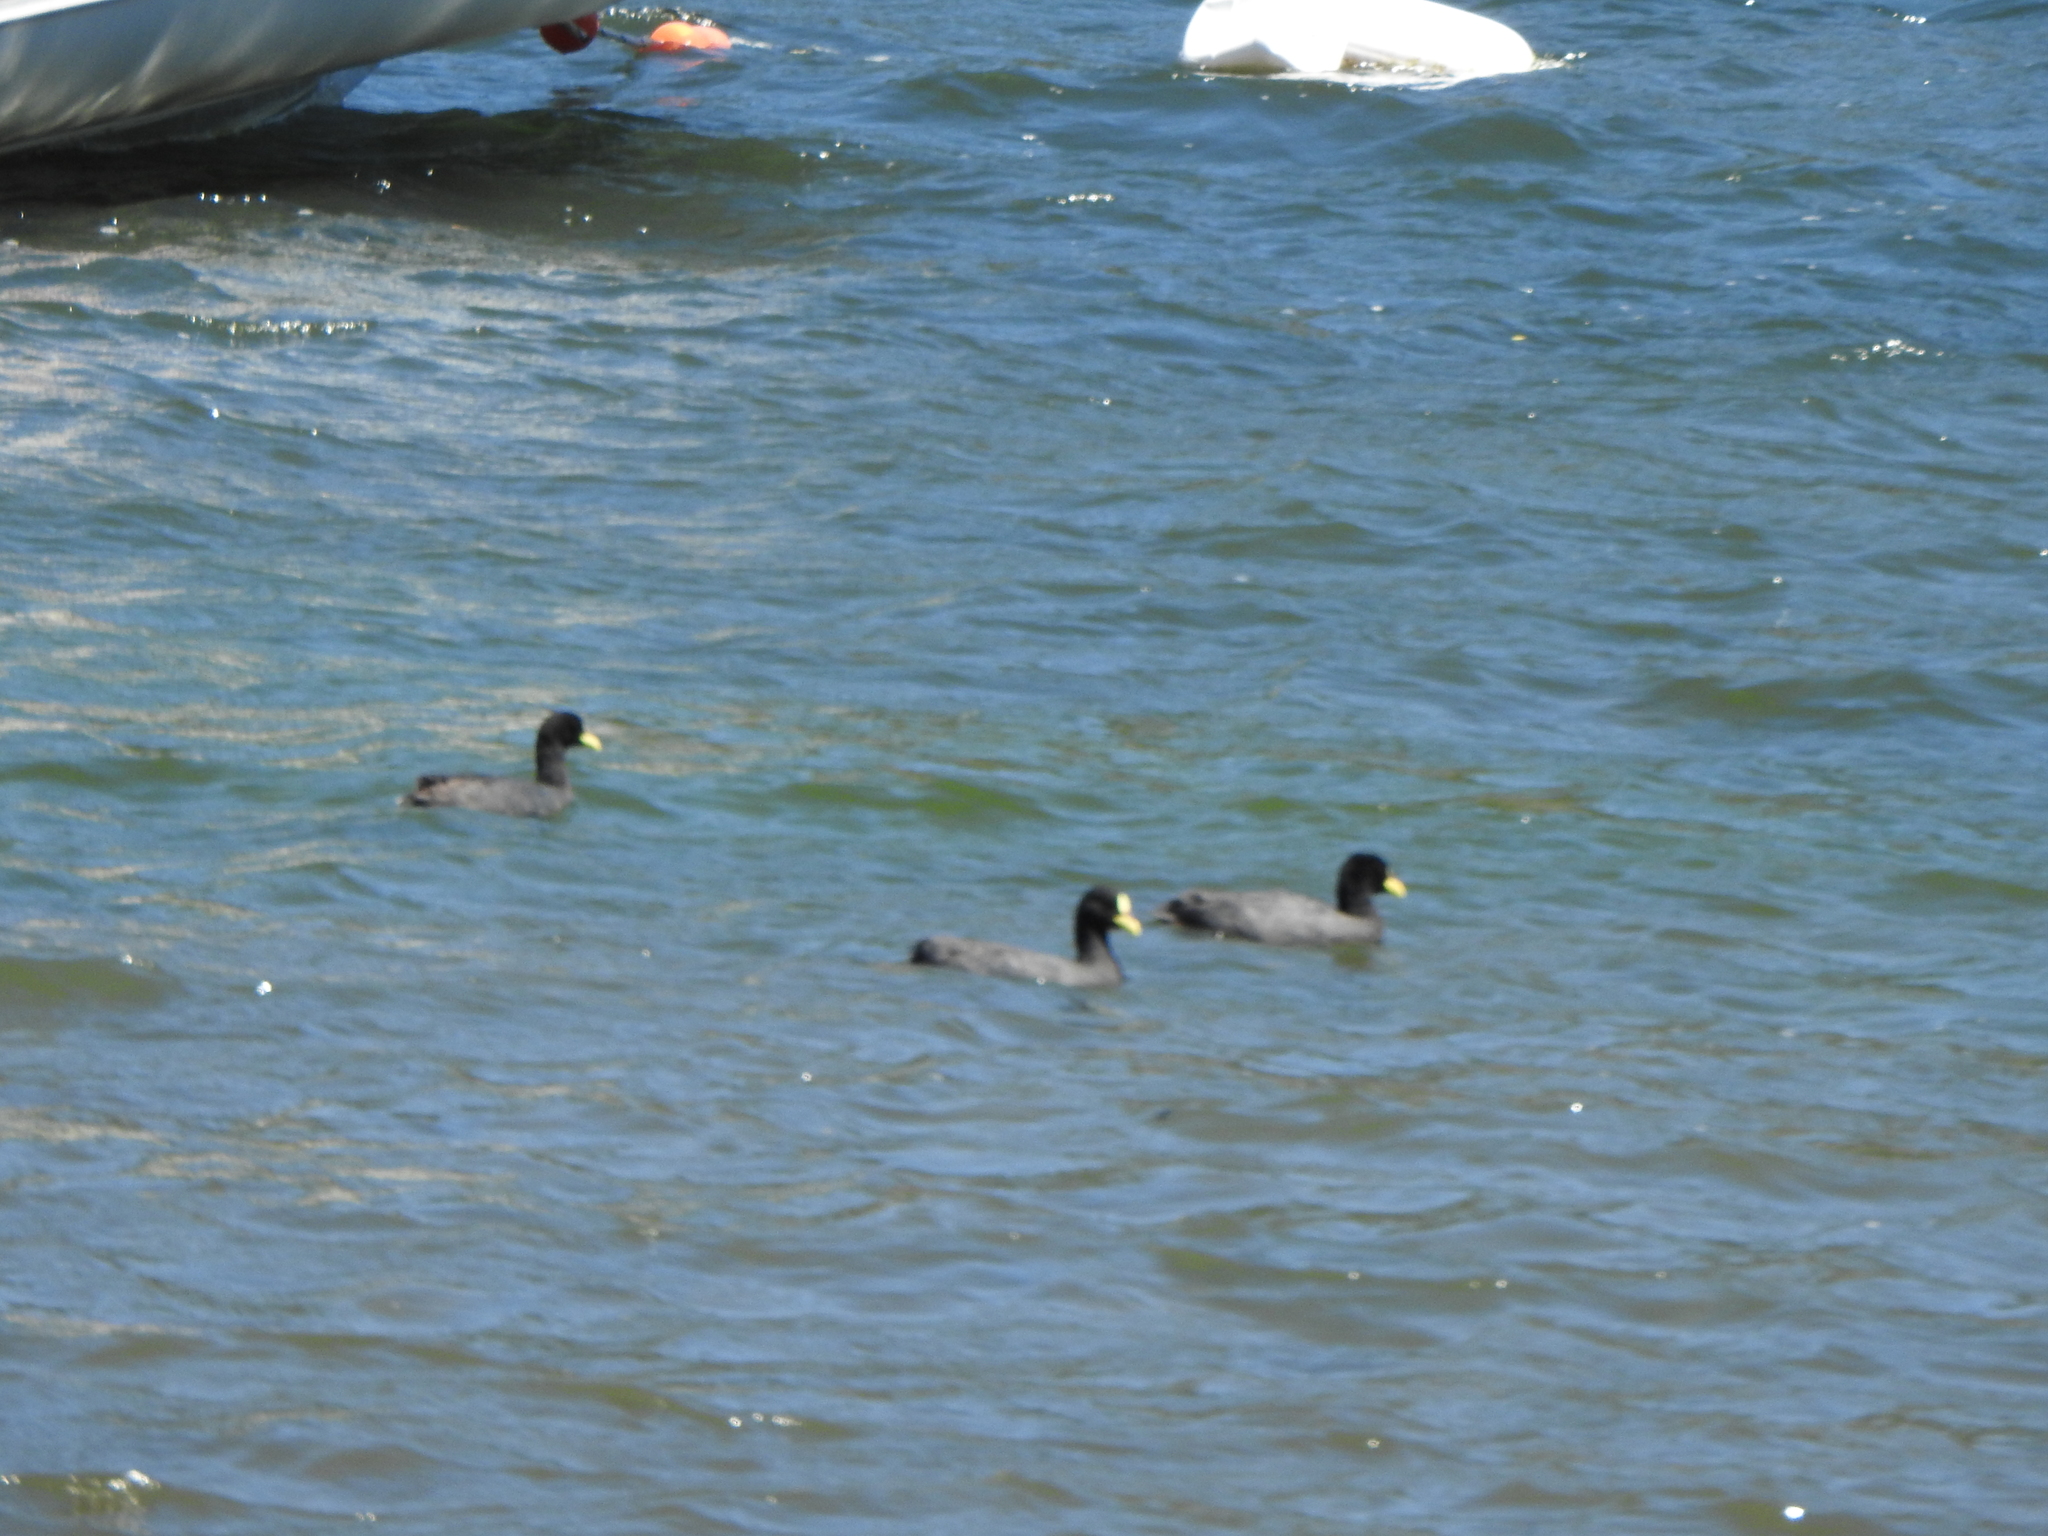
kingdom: Animalia
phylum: Chordata
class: Aves
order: Gruiformes
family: Rallidae
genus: Fulica
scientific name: Fulica armillata
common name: Red-gartered coot
